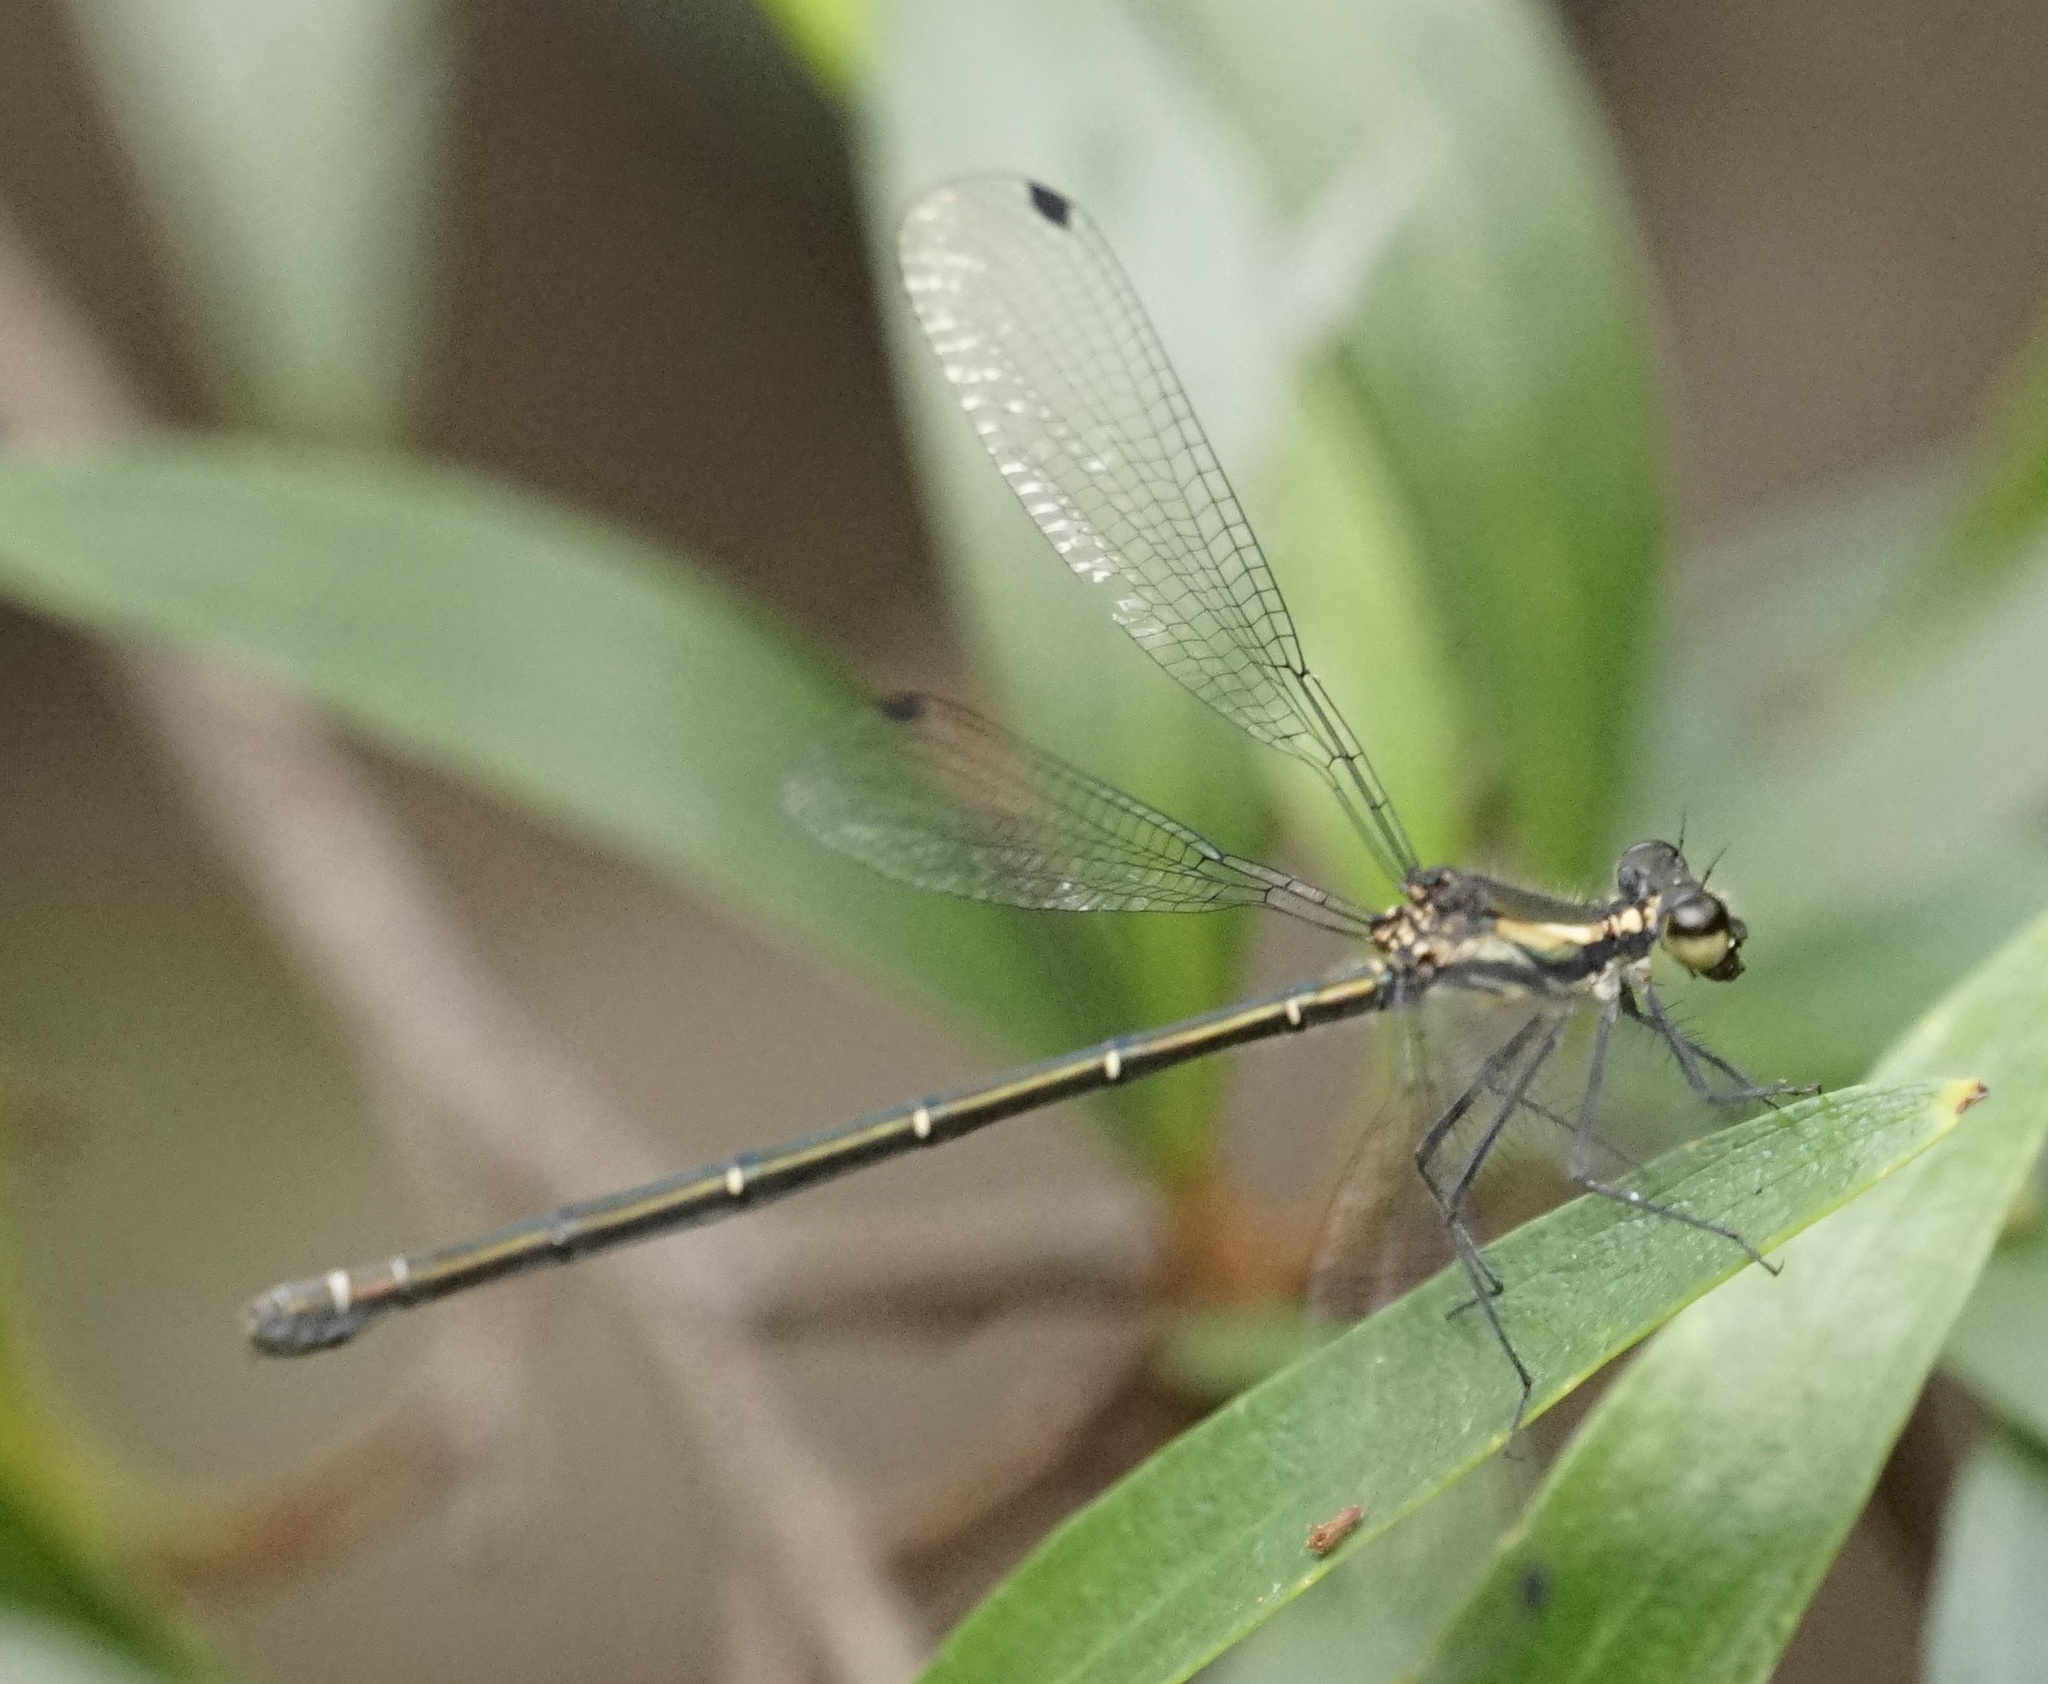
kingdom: Animalia
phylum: Arthropoda
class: Insecta
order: Odonata
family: Argiolestidae
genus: Austroargiolestes
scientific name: Austroargiolestes icteromelas
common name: Common flatwing
